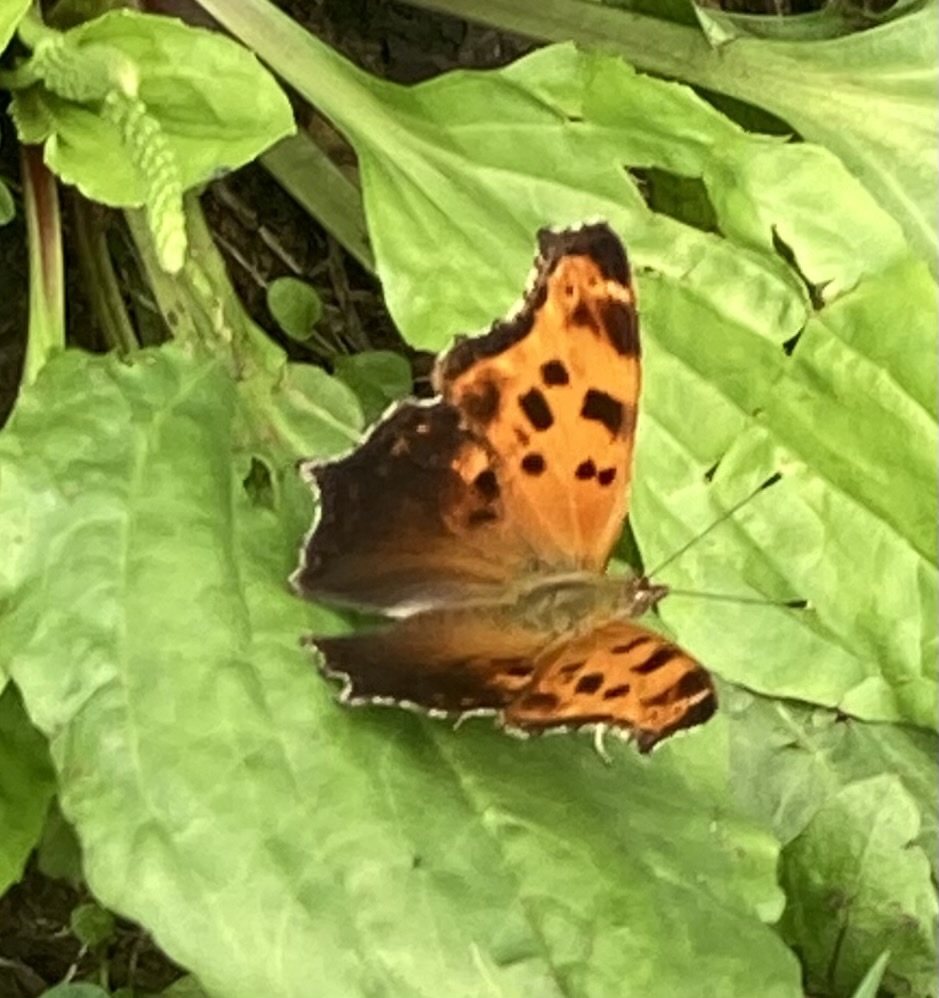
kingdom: Animalia
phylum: Arthropoda
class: Insecta
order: Lepidoptera
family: Nymphalidae
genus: Polygonia
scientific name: Polygonia comma
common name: Eastern comma
